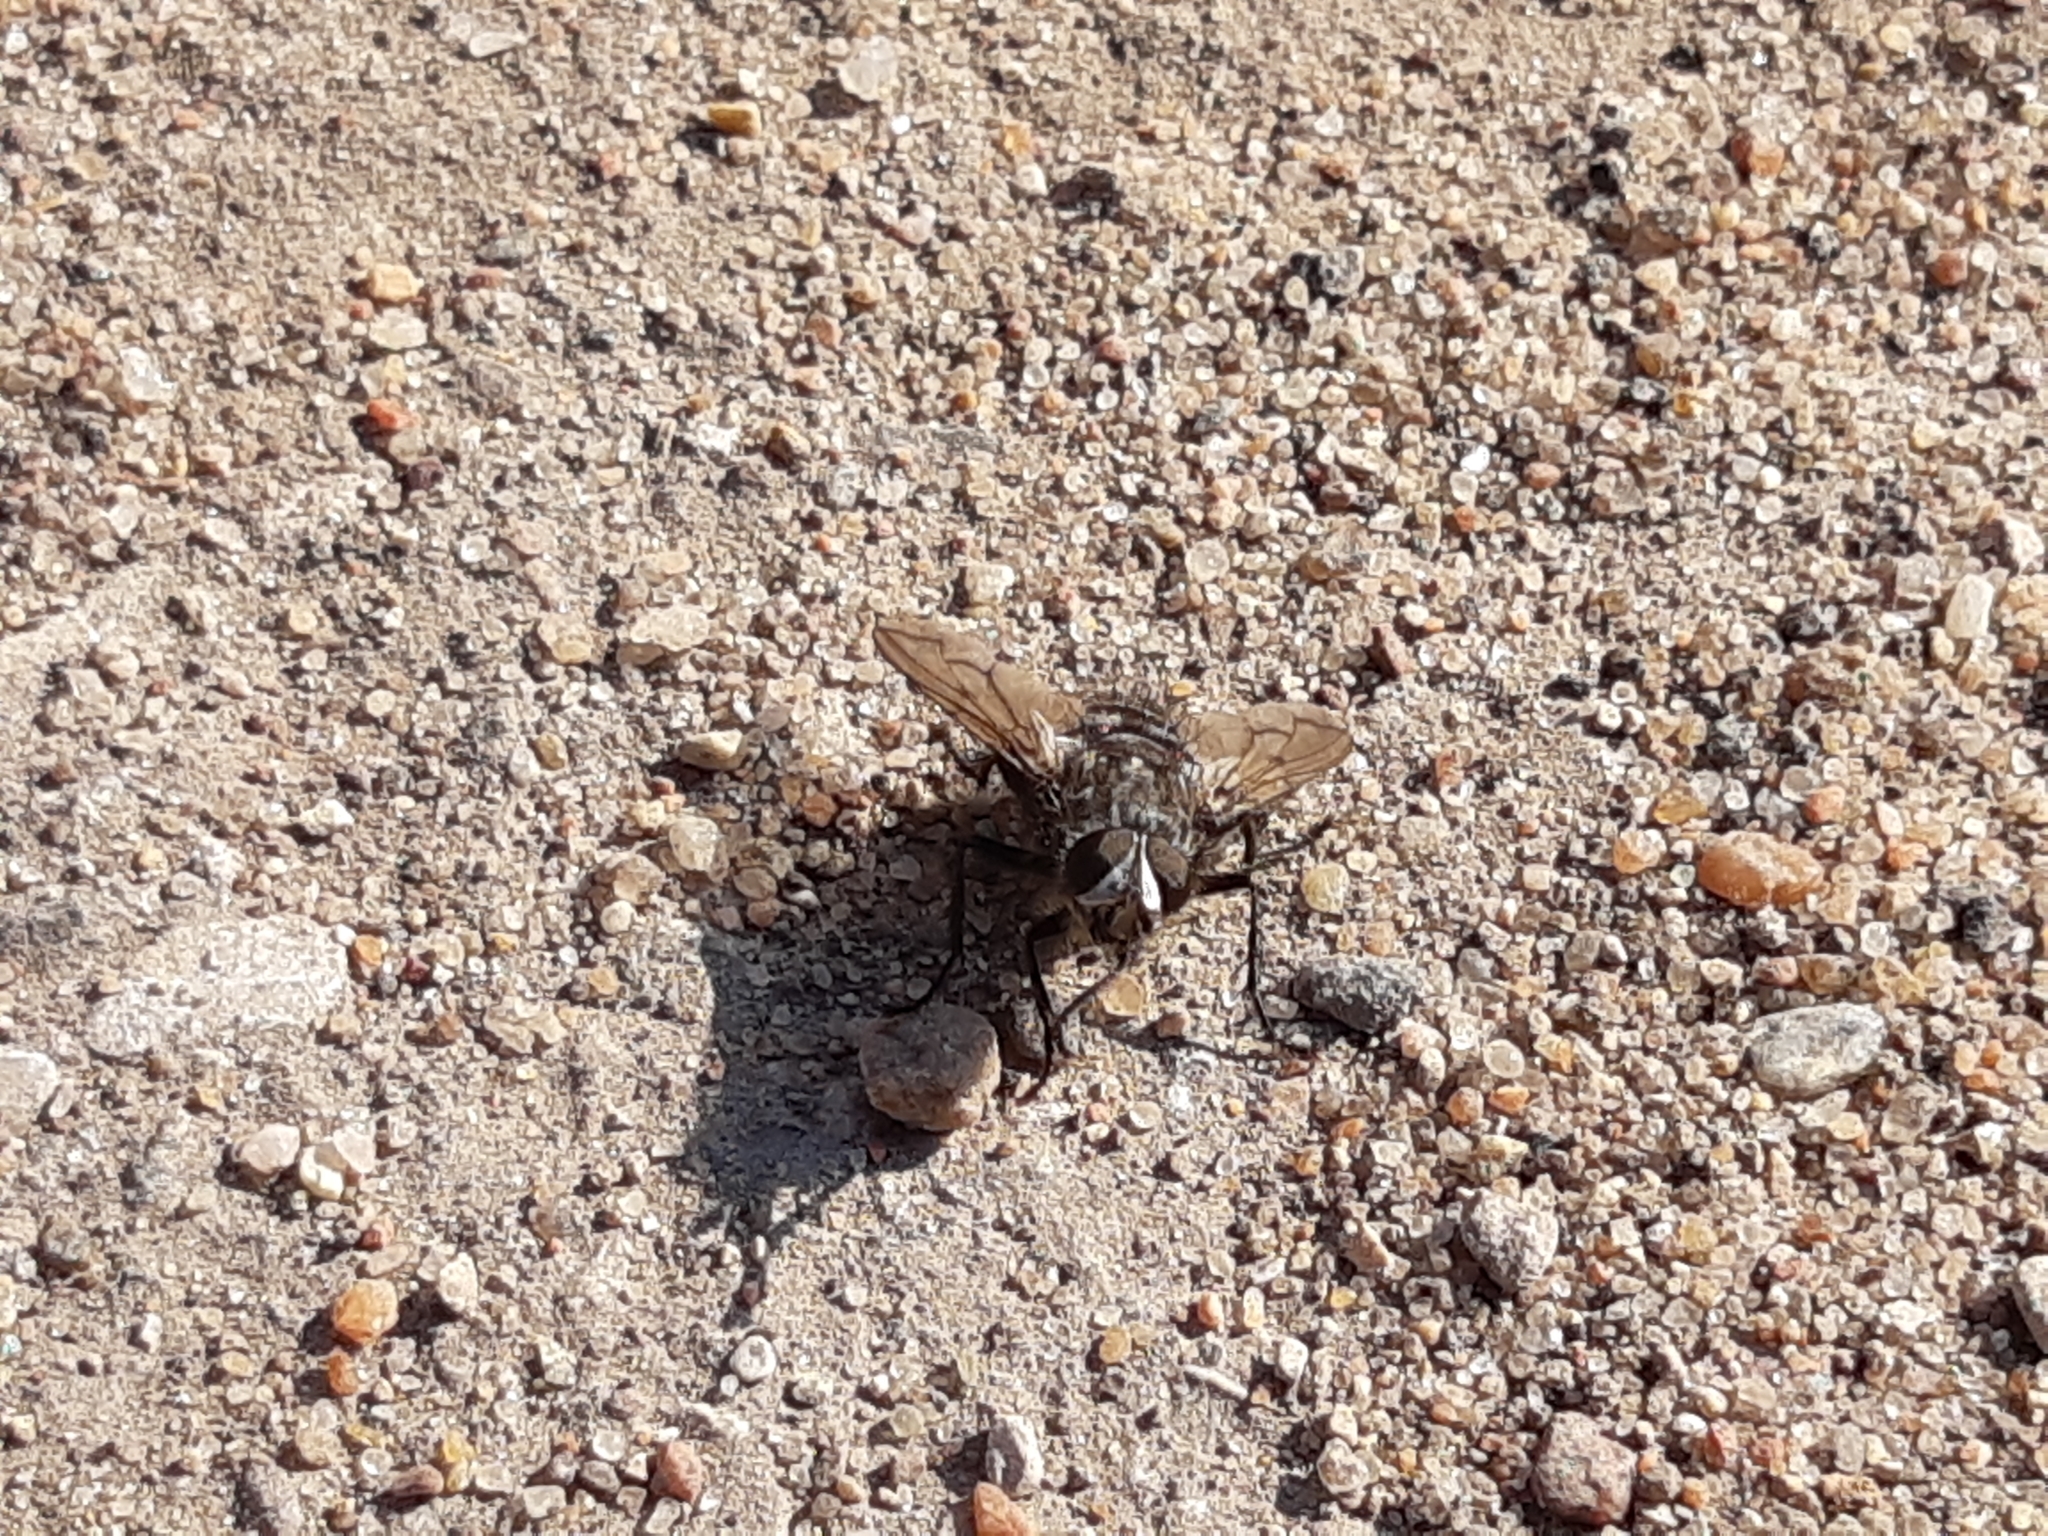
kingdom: Animalia
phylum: Arthropoda
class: Insecta
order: Diptera
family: Tachinidae
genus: Panzeria
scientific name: Panzeria puparum
